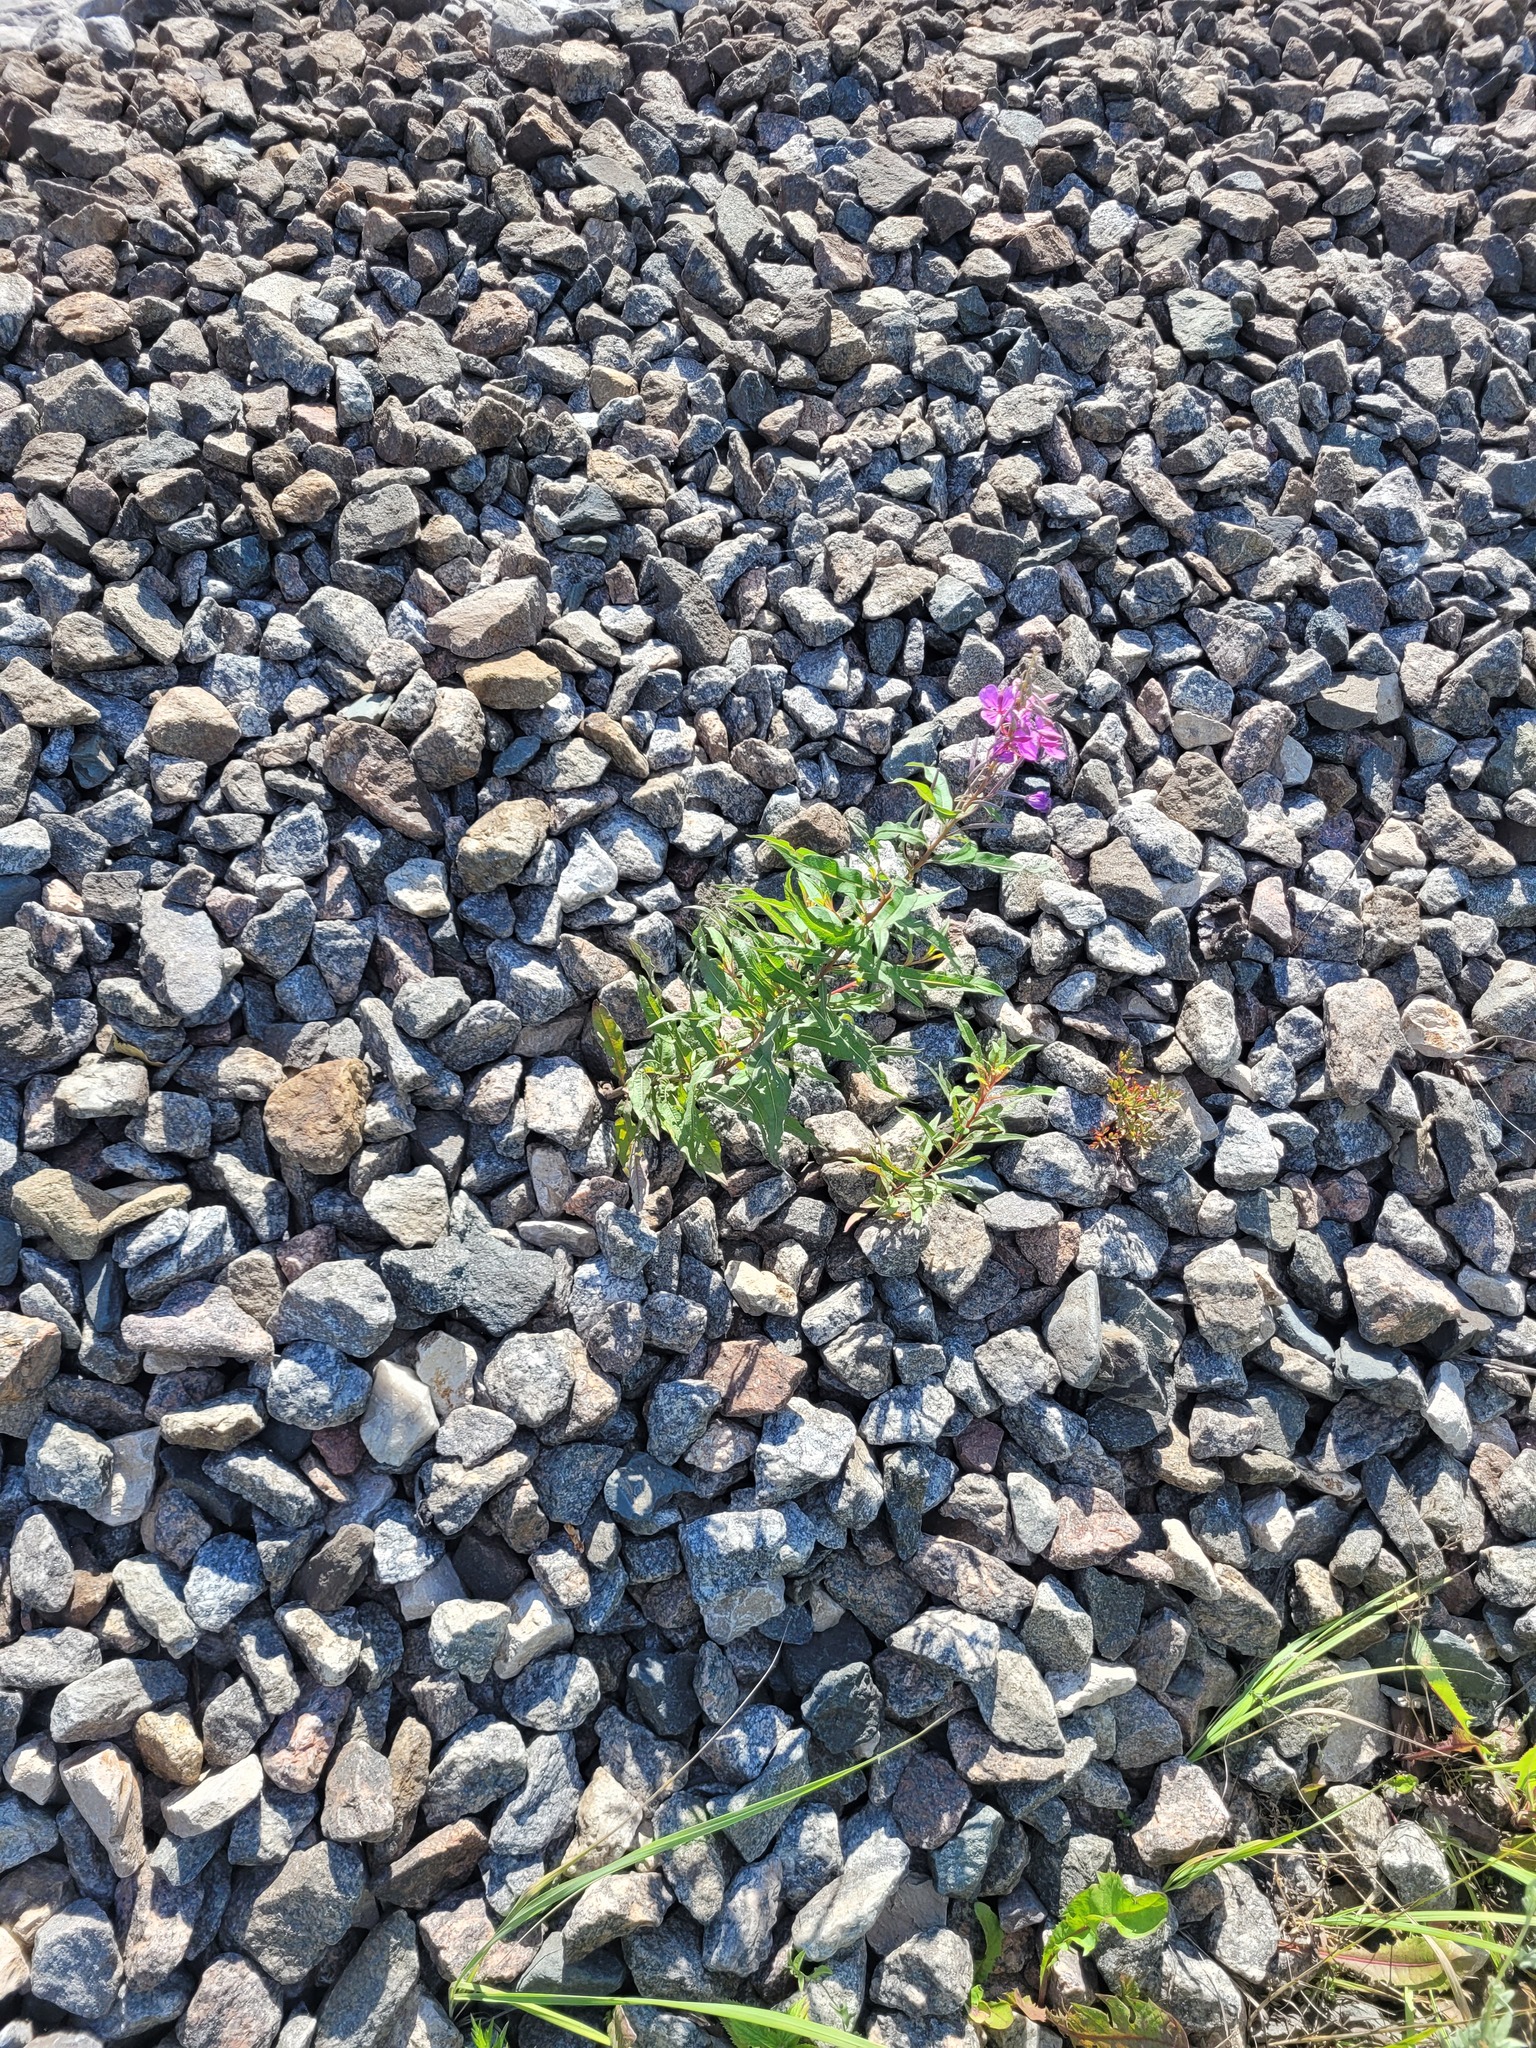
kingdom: Plantae
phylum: Tracheophyta
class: Magnoliopsida
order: Myrtales
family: Onagraceae
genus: Chamaenerion
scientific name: Chamaenerion angustifolium
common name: Fireweed
